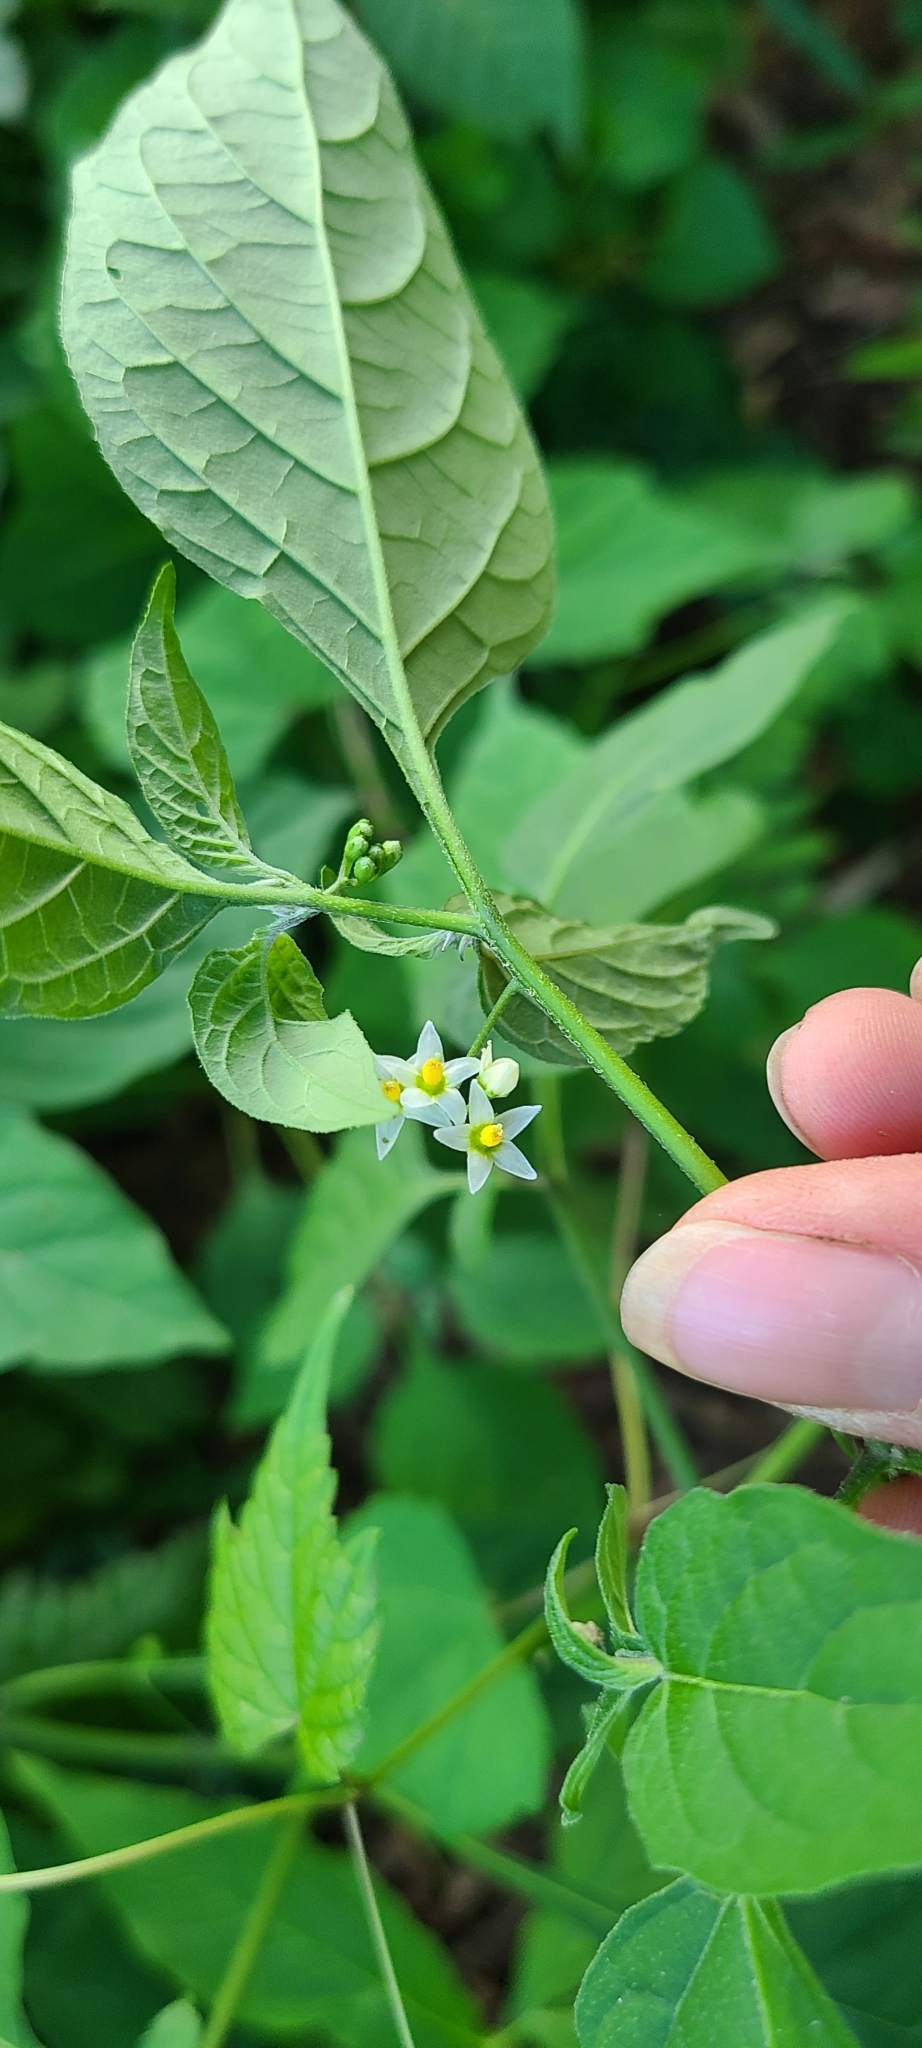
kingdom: Plantae
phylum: Tracheophyta
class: Magnoliopsida
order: Solanales
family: Solanaceae
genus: Solanum
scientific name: Solanum emulans
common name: Eastern black nightshade
